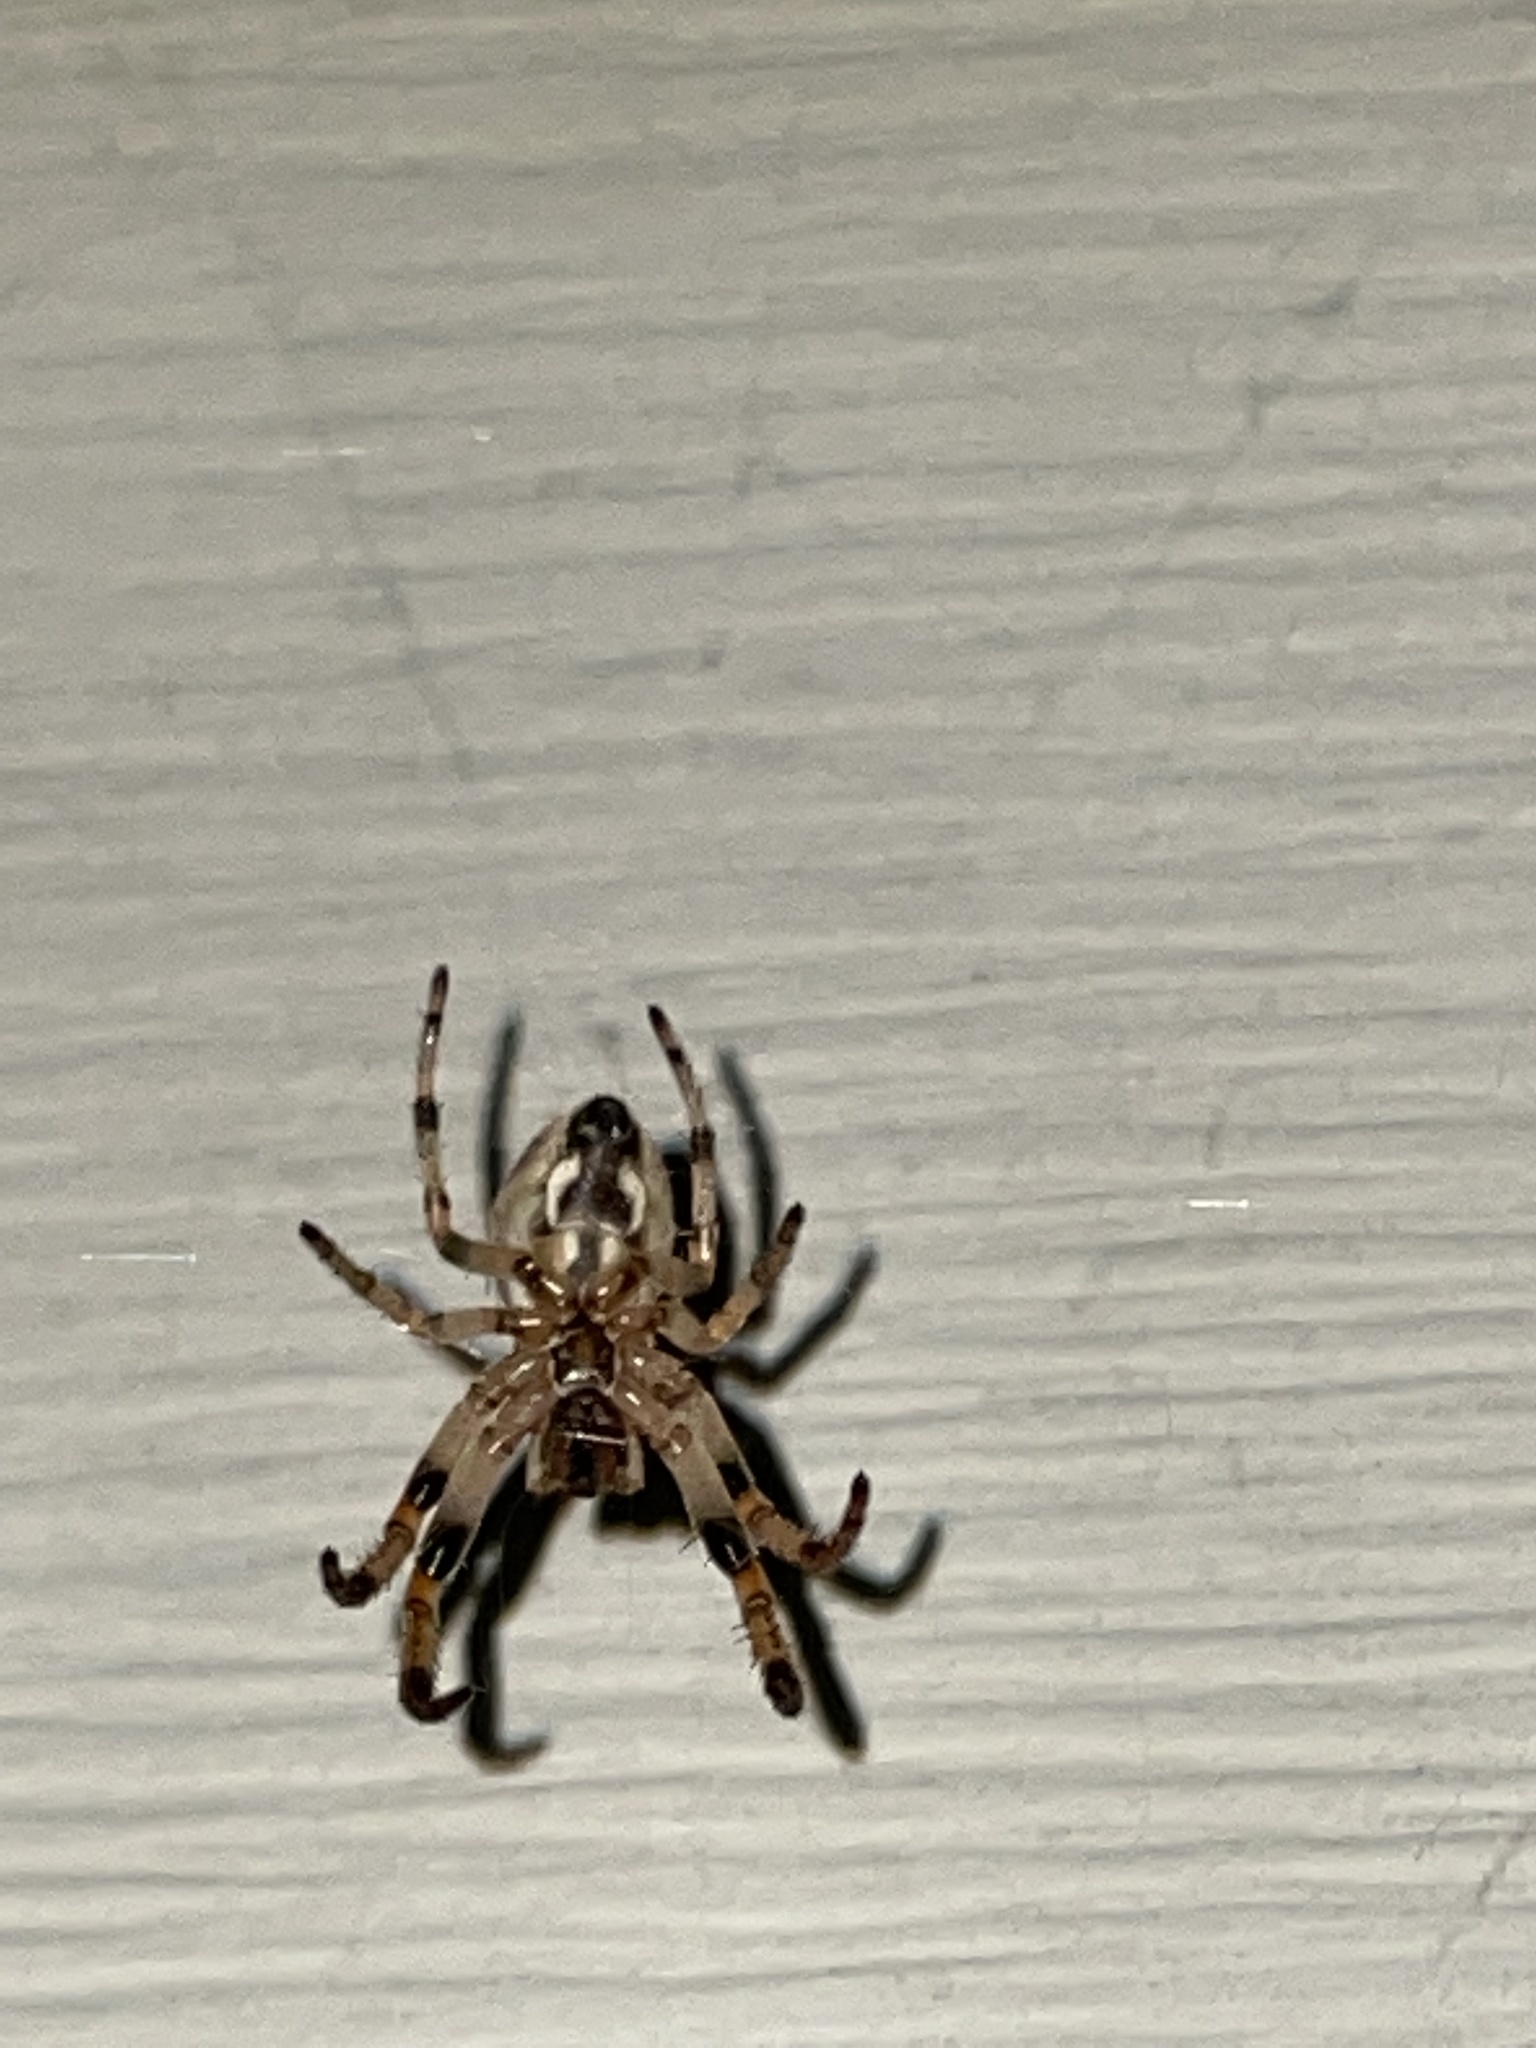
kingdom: Animalia
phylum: Arthropoda
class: Arachnida
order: Araneae
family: Araneidae
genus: Larinioides
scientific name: Larinioides cornutus
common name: Furrow orbweaver
